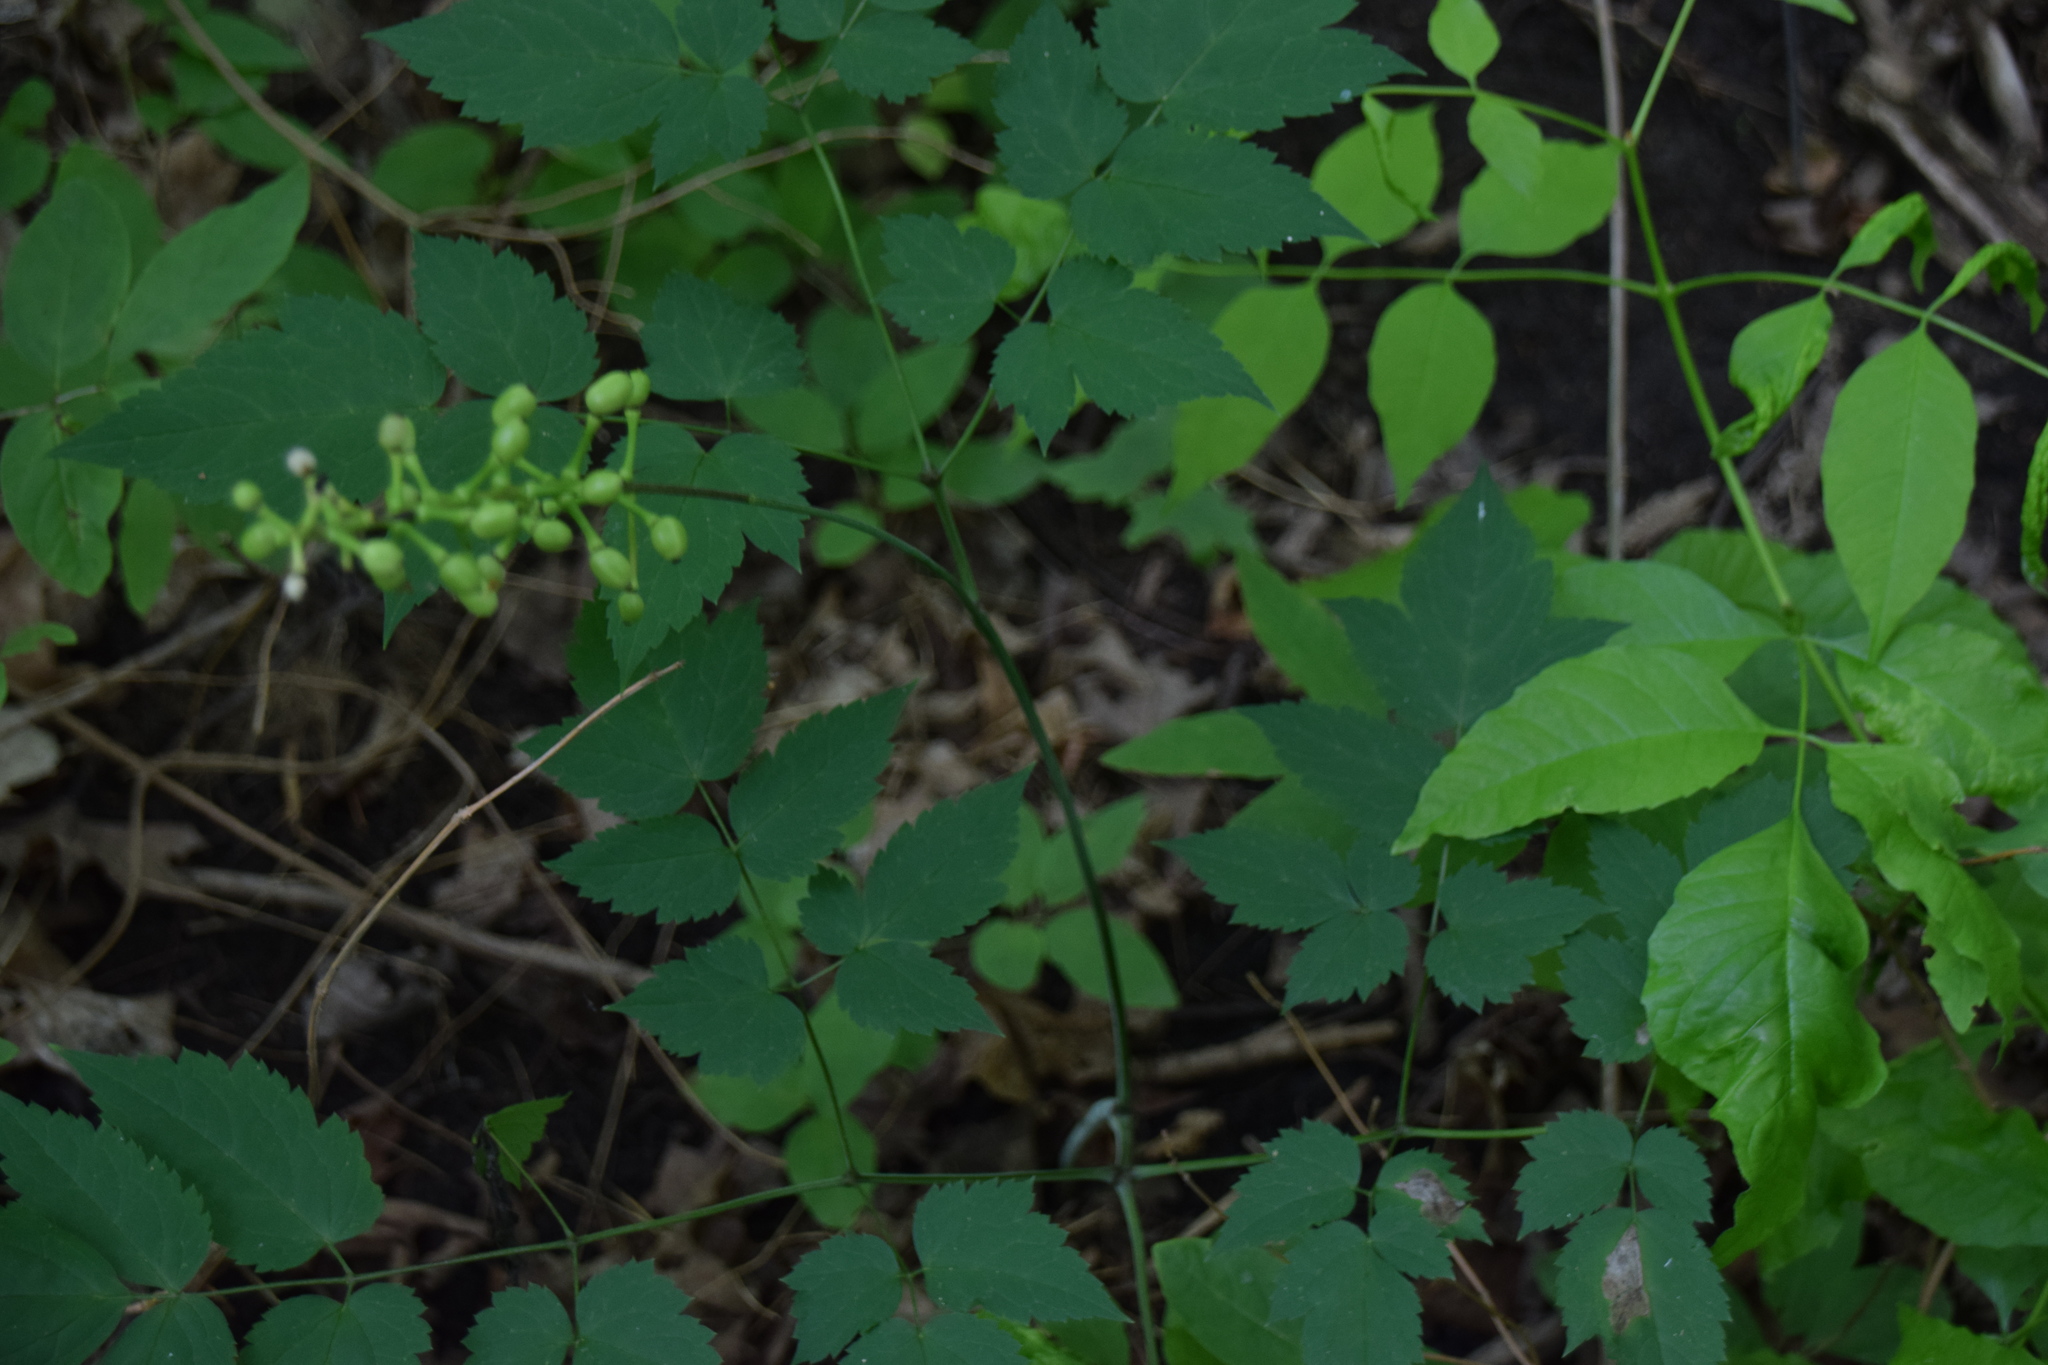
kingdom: Plantae
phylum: Tracheophyta
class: Magnoliopsida
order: Ranunculales
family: Ranunculaceae
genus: Actaea
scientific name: Actaea pachypoda
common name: Doll's-eyes
